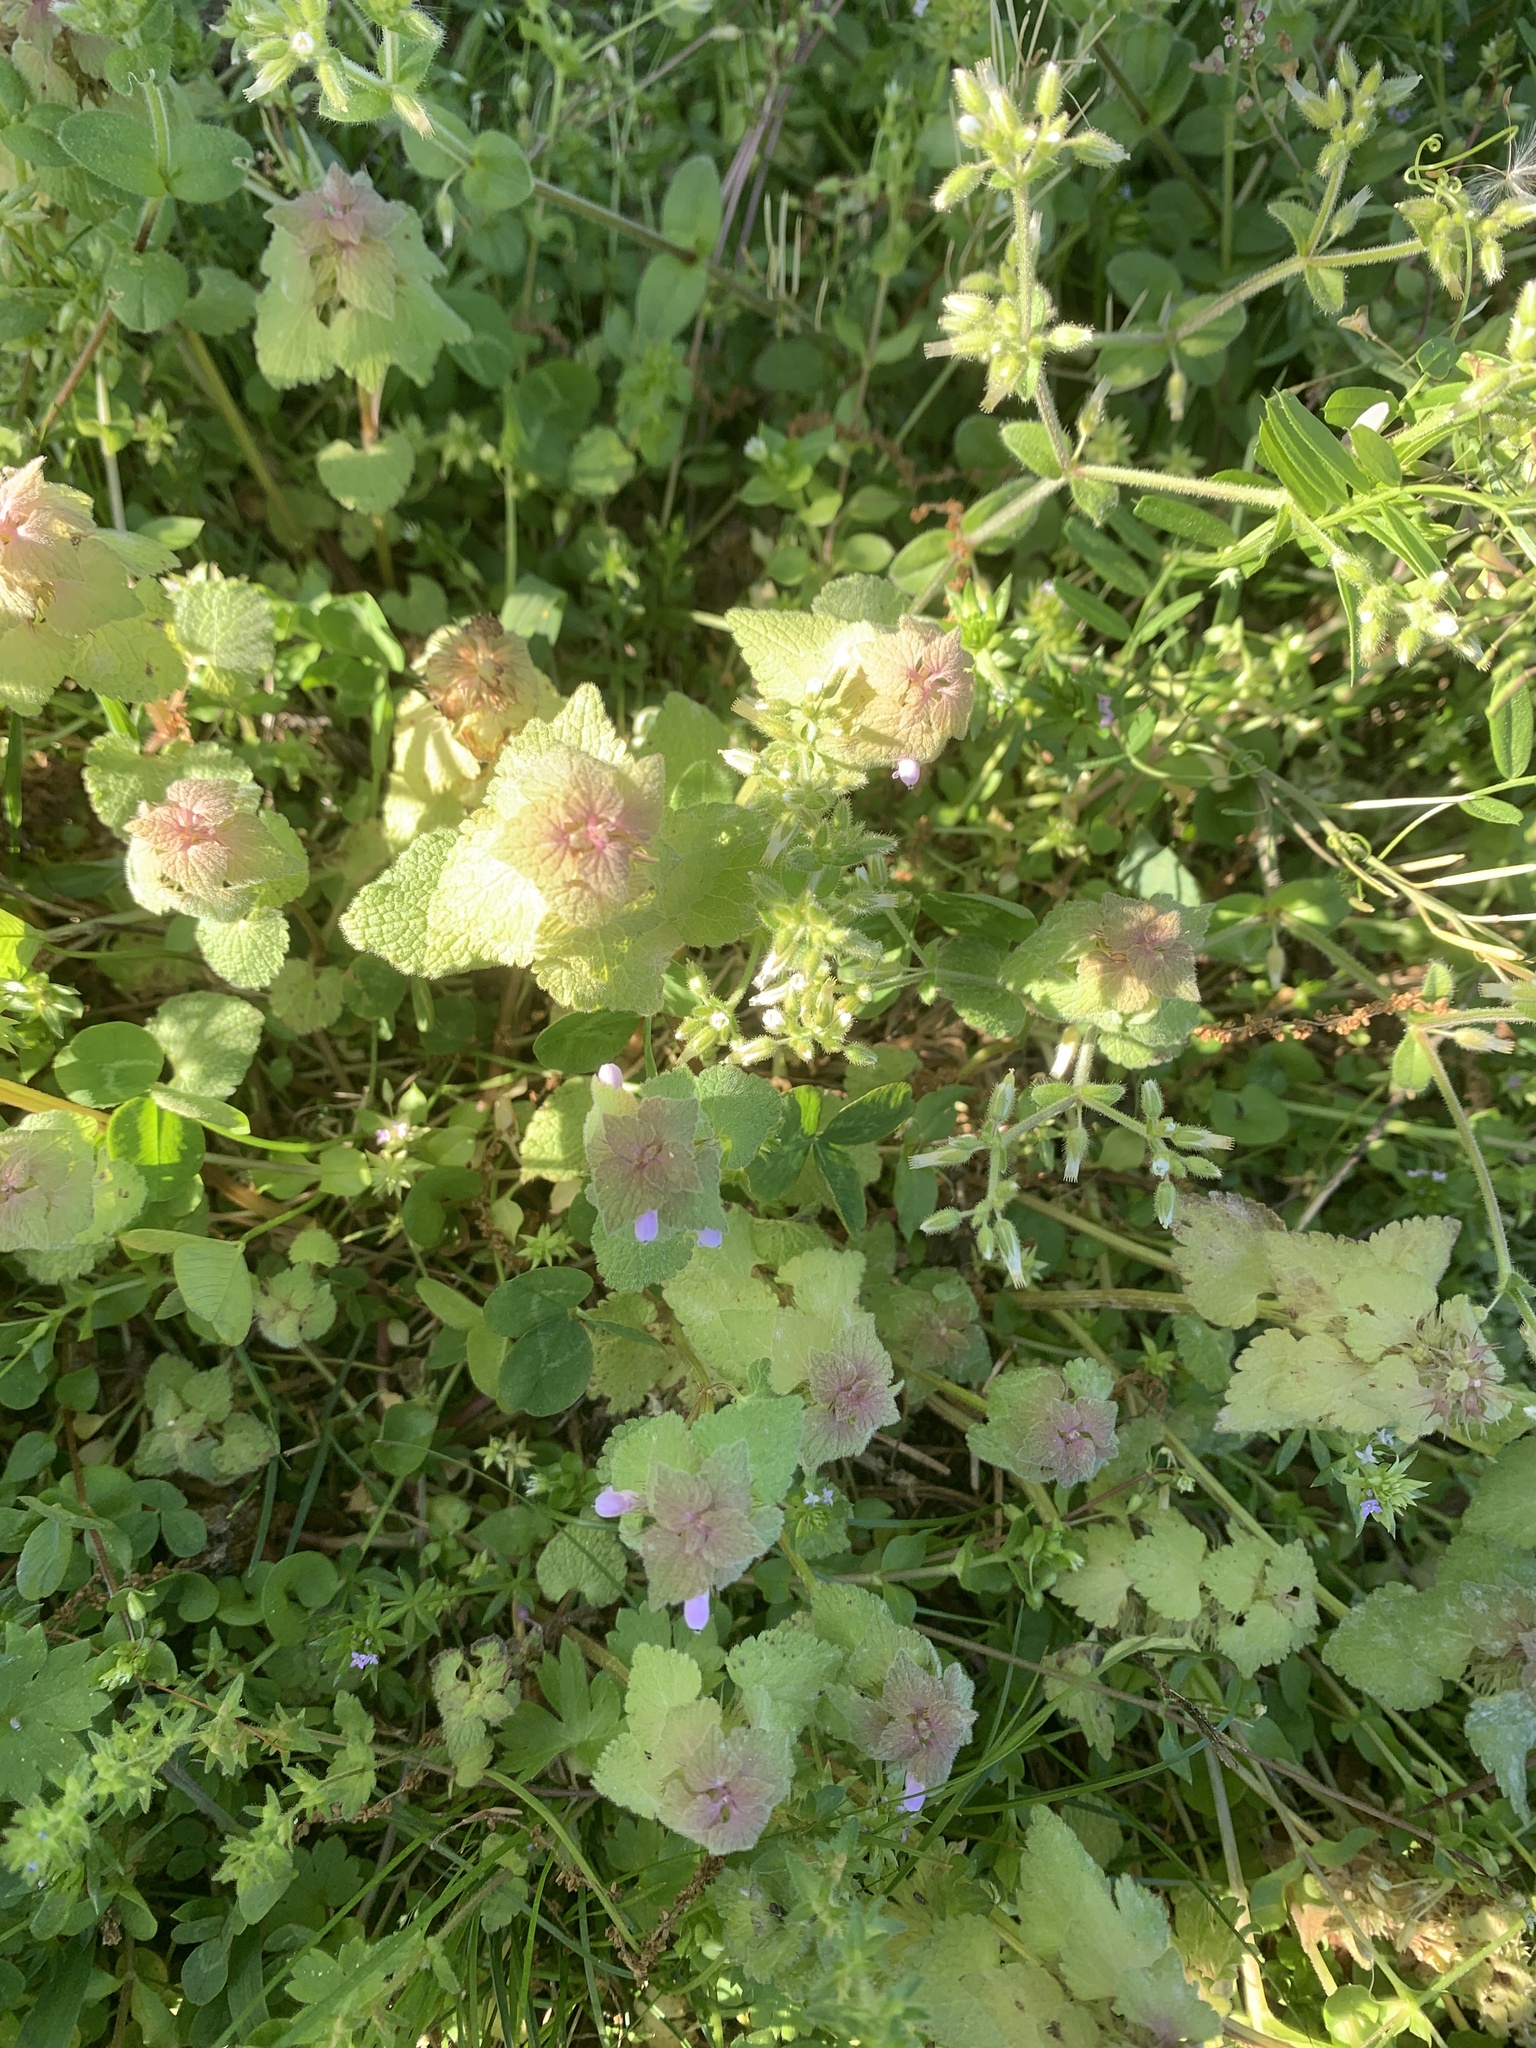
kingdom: Plantae
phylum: Tracheophyta
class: Magnoliopsida
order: Lamiales
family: Lamiaceae
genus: Lamium
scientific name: Lamium purpureum
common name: Red dead-nettle
